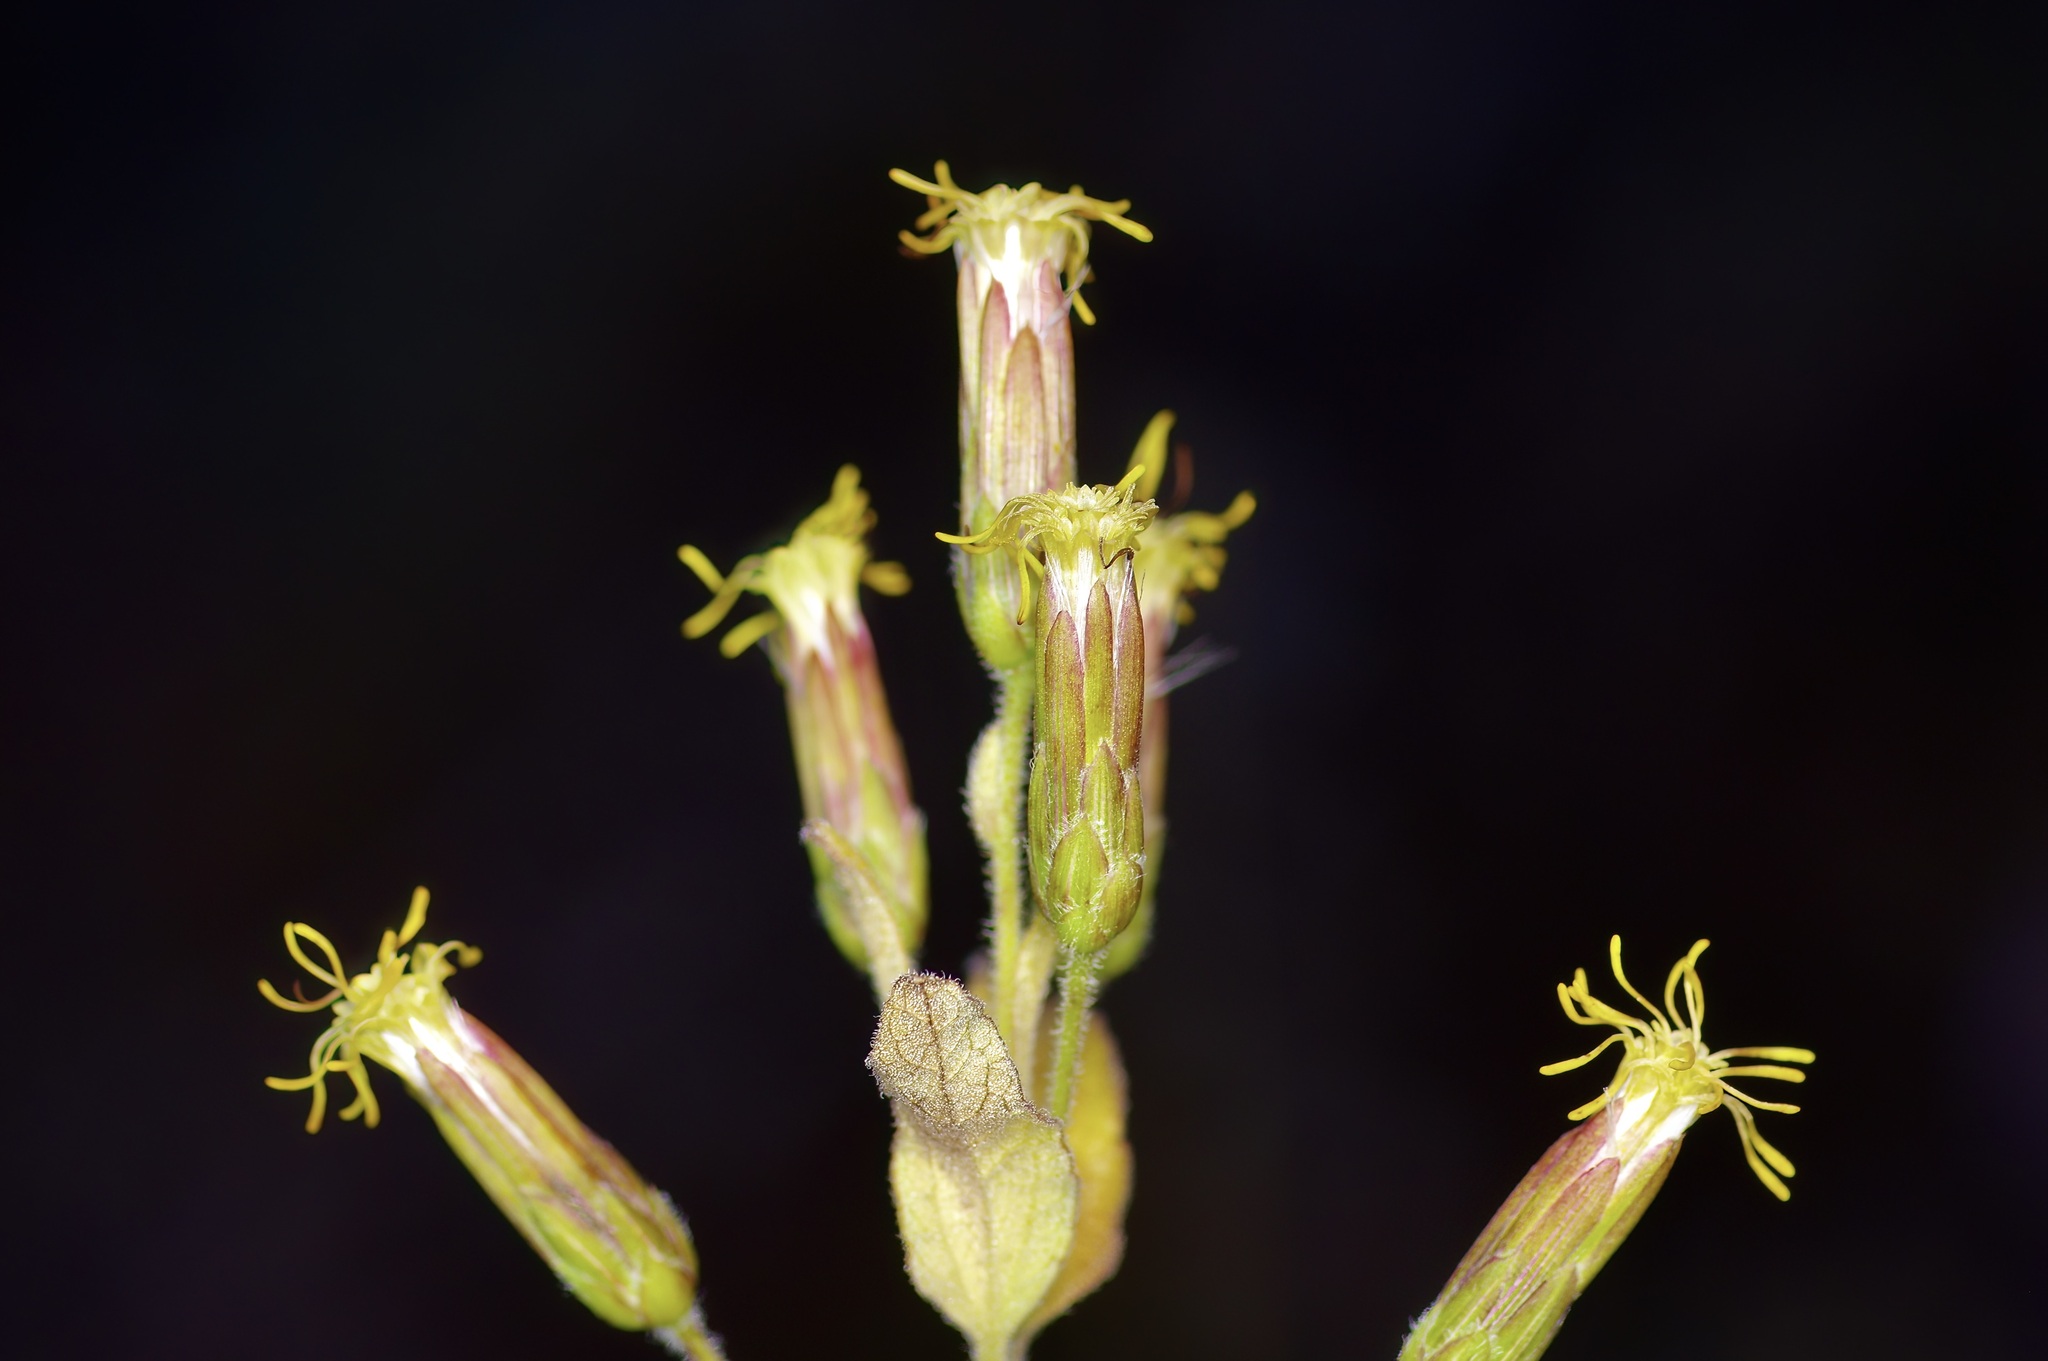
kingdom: Plantae
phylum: Tracheophyta
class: Magnoliopsida
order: Asterales
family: Asteraceae
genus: Brickellia
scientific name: Brickellia cylindracea
